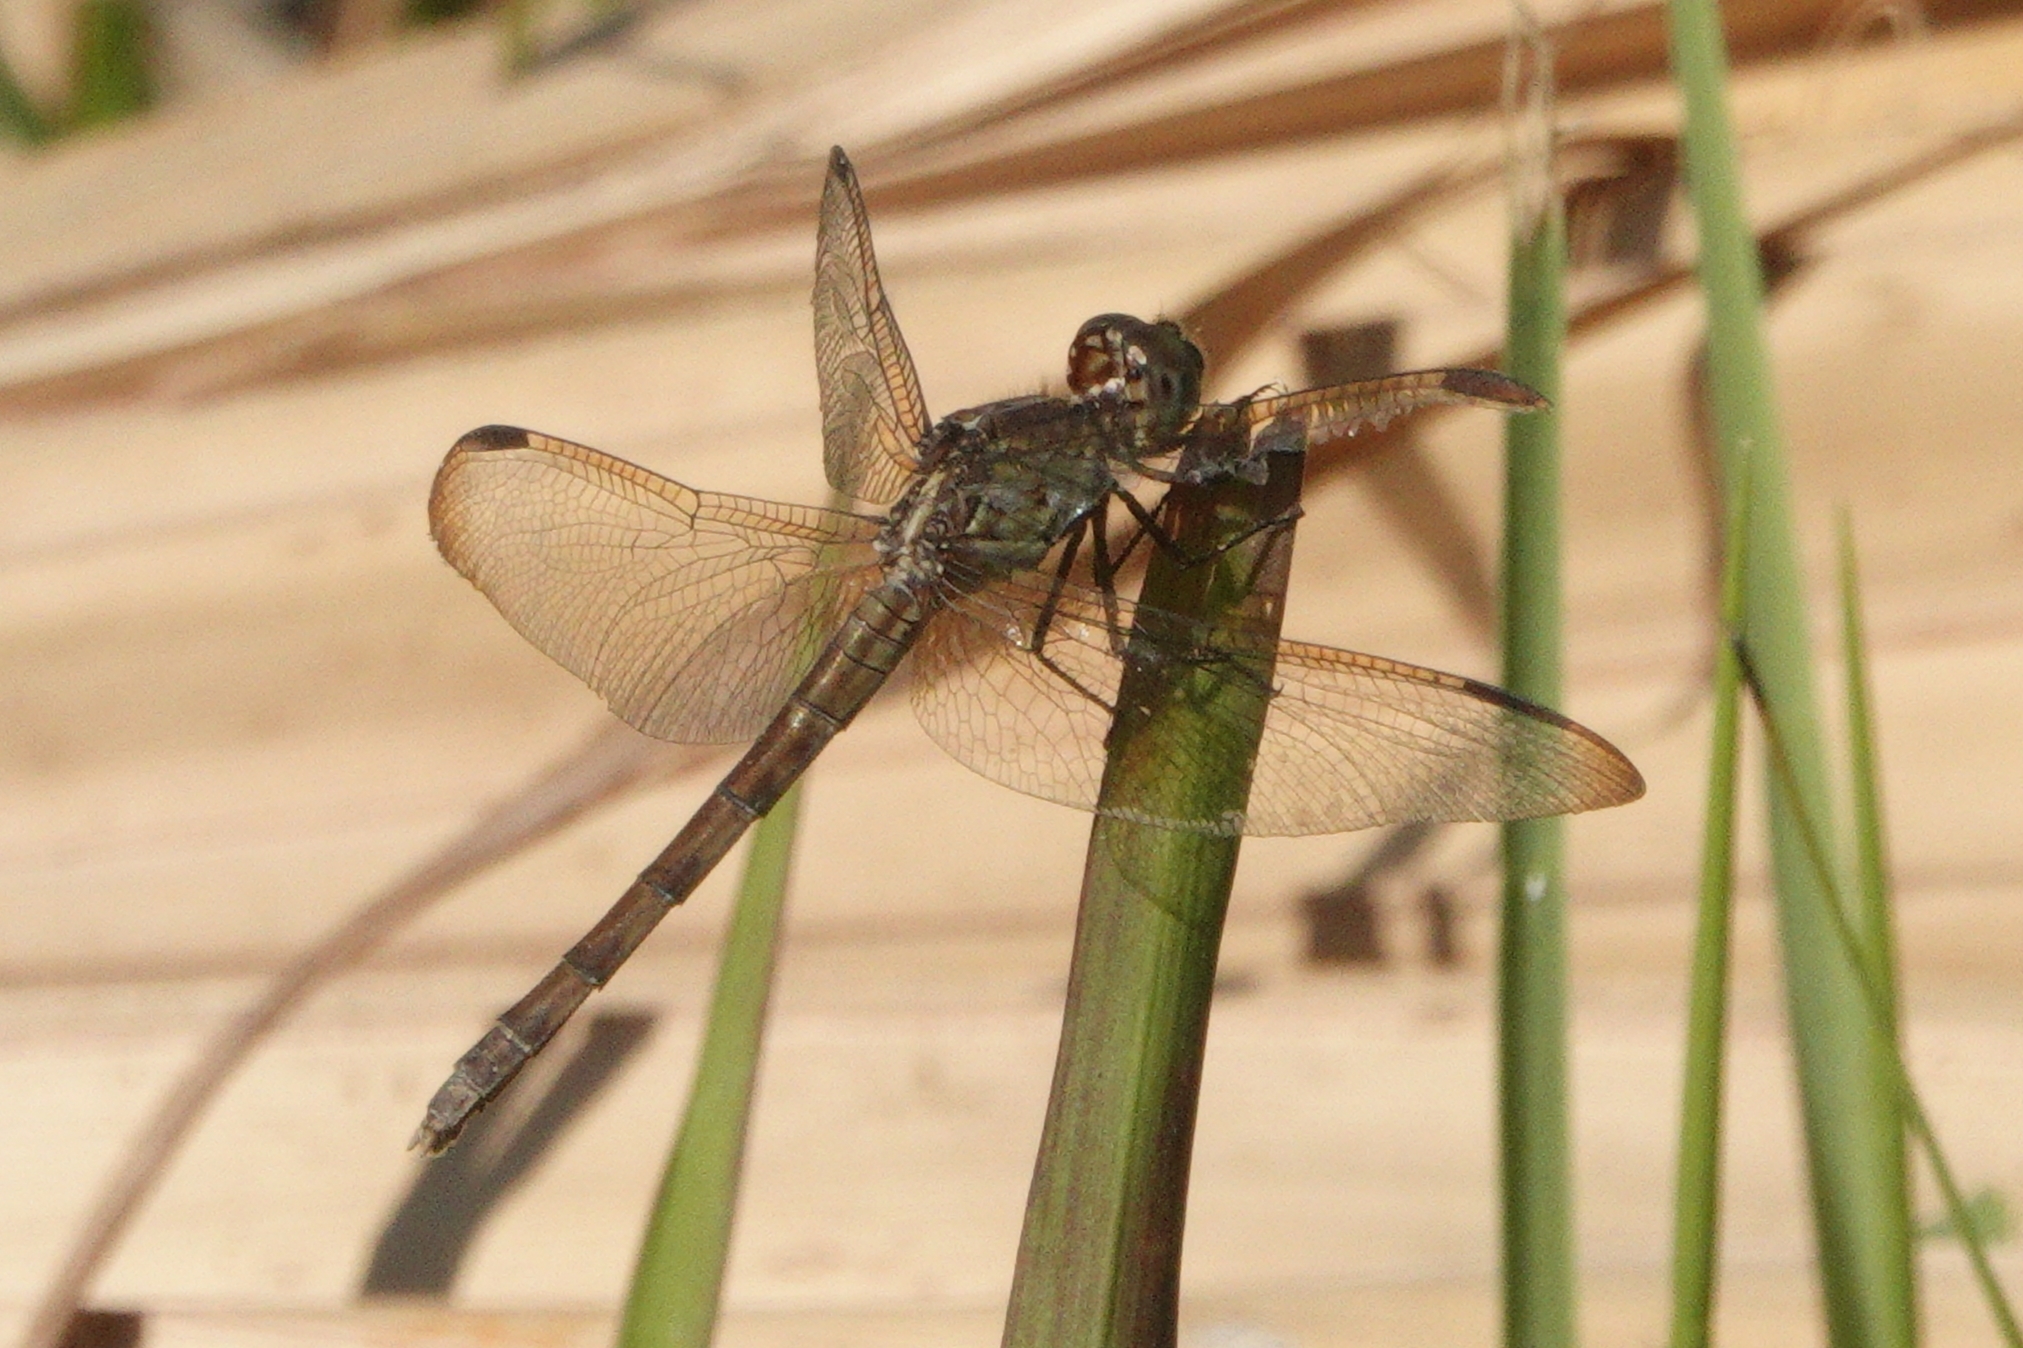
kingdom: Animalia
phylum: Arthropoda
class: Insecta
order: Odonata
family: Libellulidae
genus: Erythrodiplax
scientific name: Erythrodiplax umbrata
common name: Band-winged dragonlet
